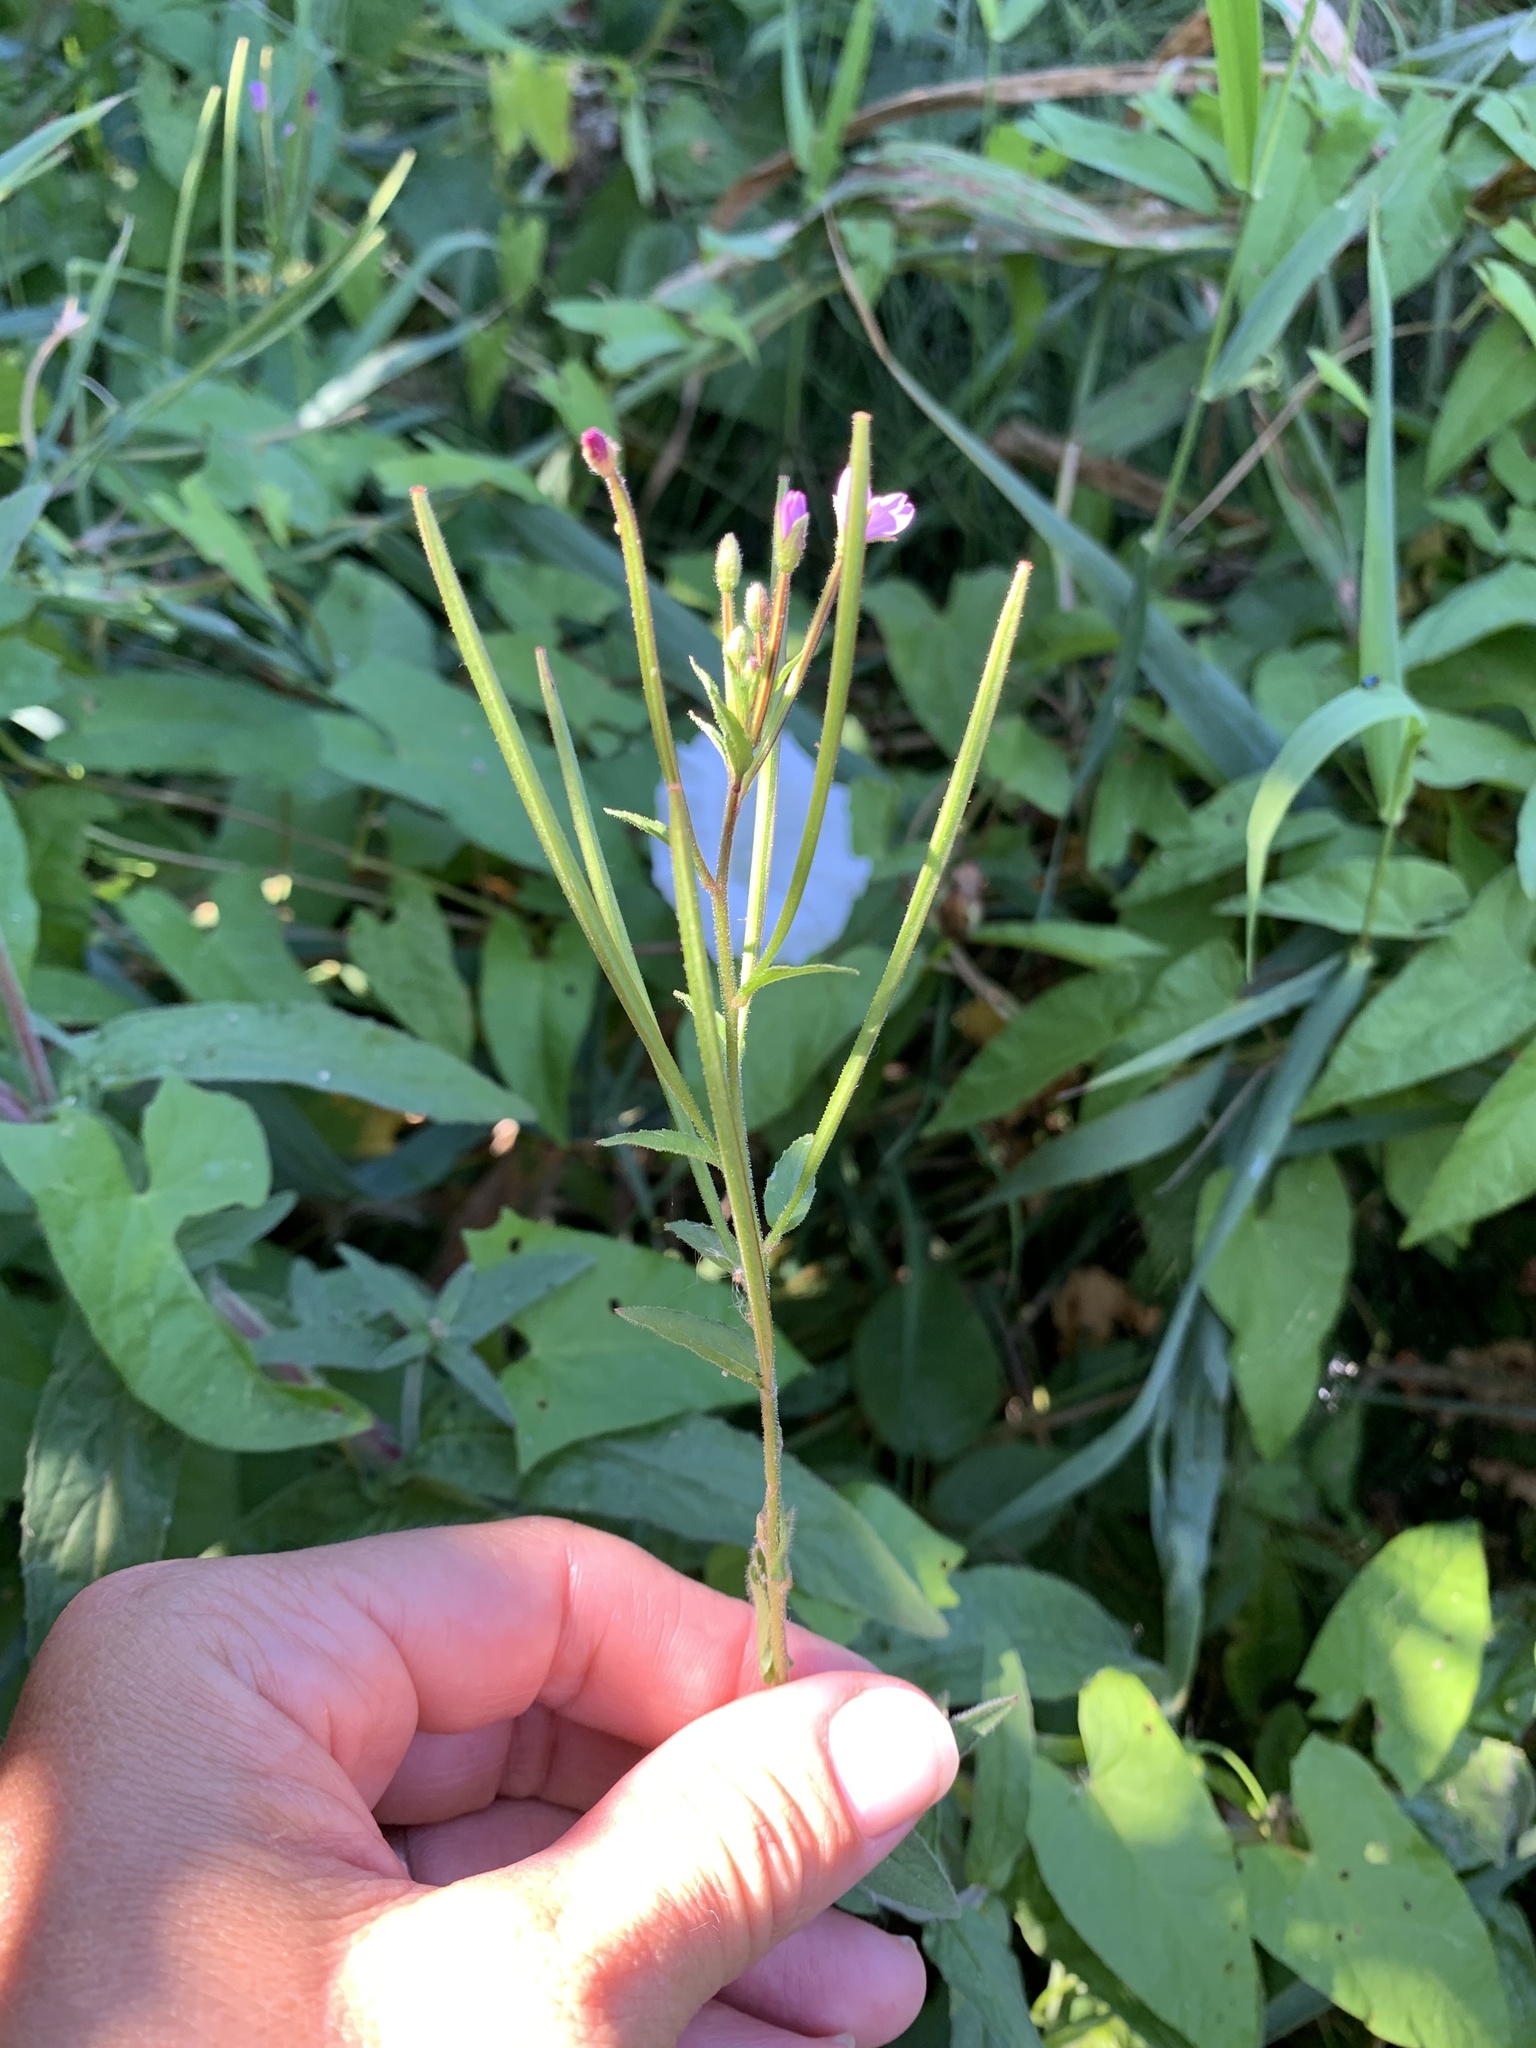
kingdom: Plantae
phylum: Tracheophyta
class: Magnoliopsida
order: Myrtales
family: Onagraceae
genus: Epilobium
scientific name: Epilobium parviflorum
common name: Hoary willowherb
